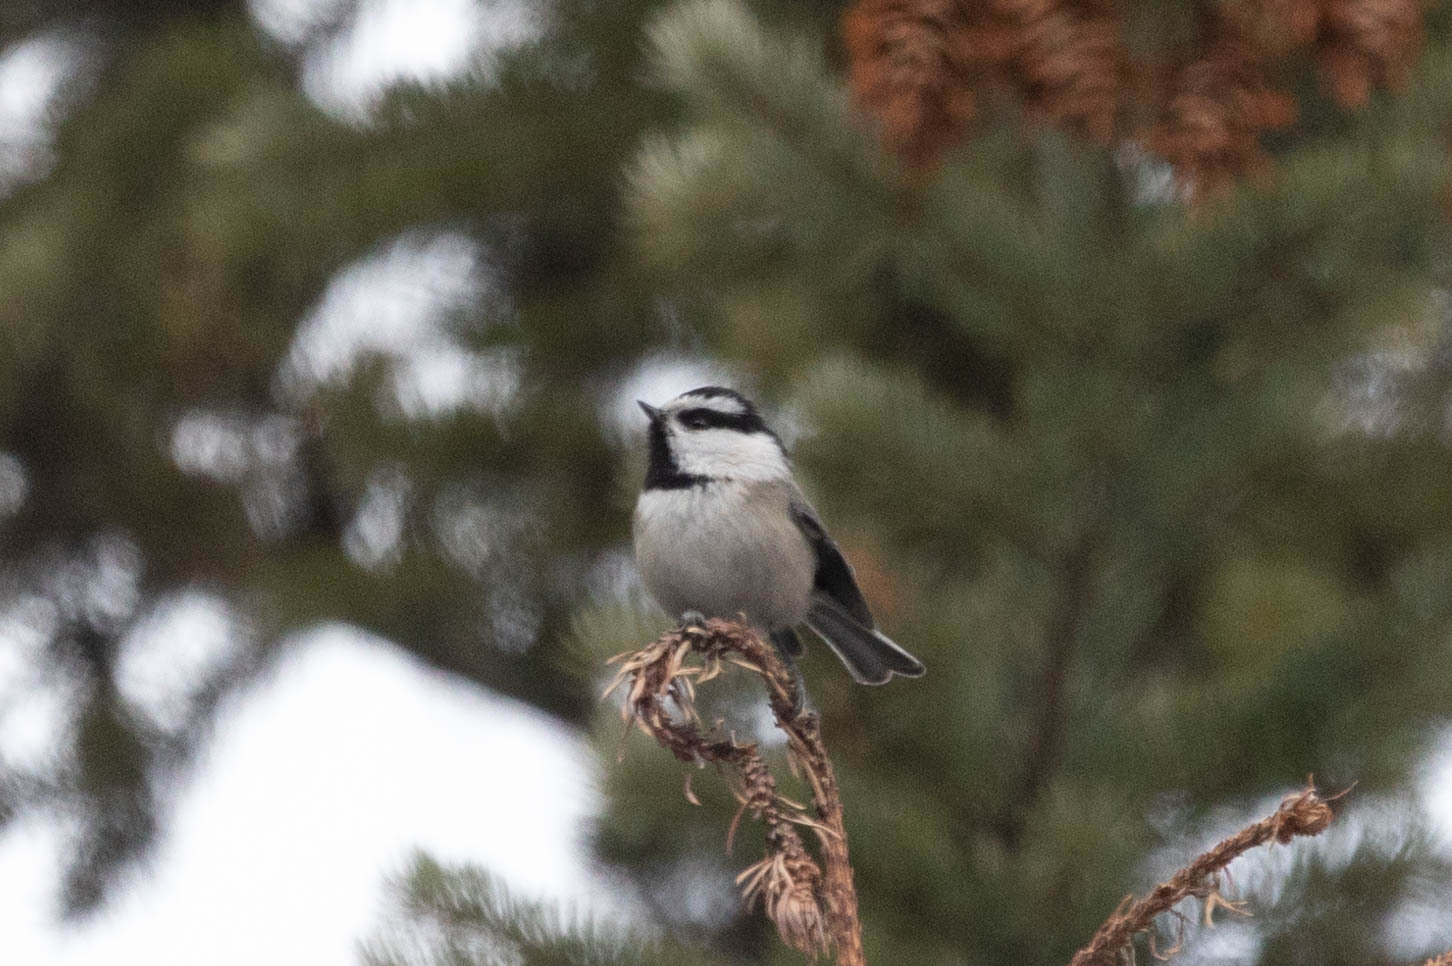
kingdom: Animalia
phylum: Chordata
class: Aves
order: Passeriformes
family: Paridae
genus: Poecile
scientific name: Poecile gambeli
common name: Mountain chickadee
